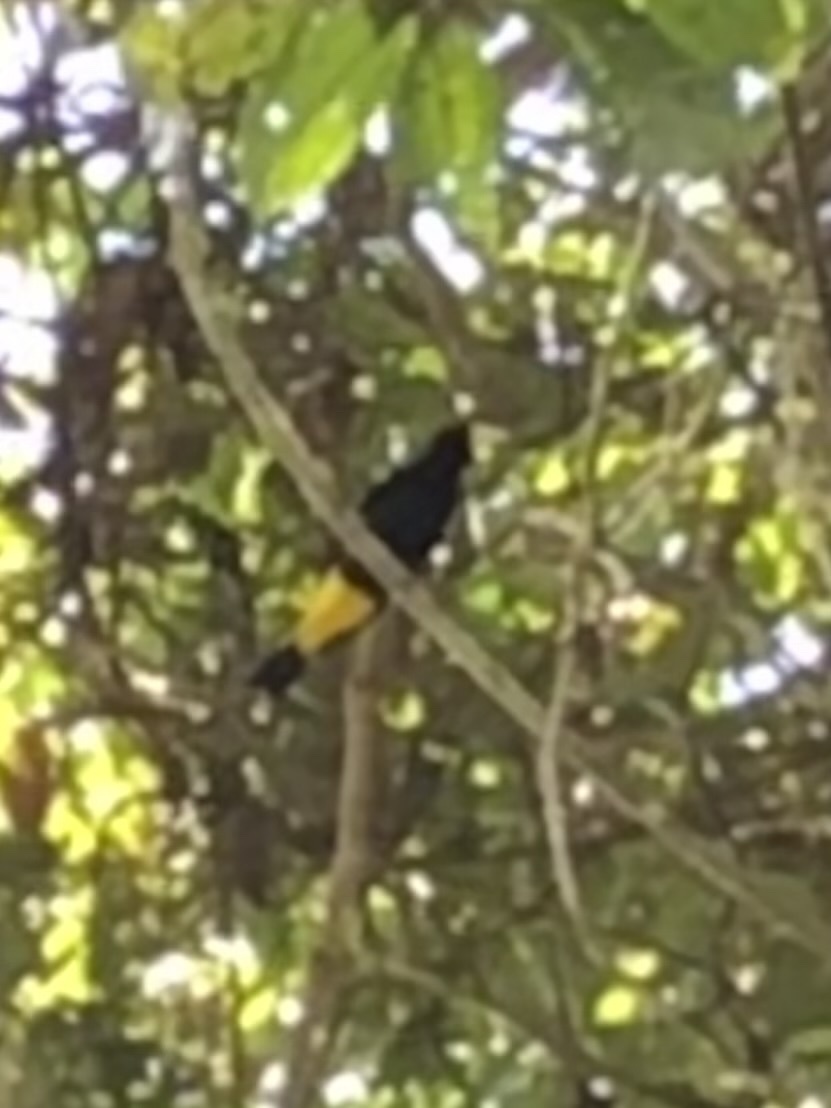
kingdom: Animalia
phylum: Chordata
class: Aves
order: Passeriformes
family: Icteridae
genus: Cacicus
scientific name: Cacicus cela
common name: Yellow-rumped cacique
